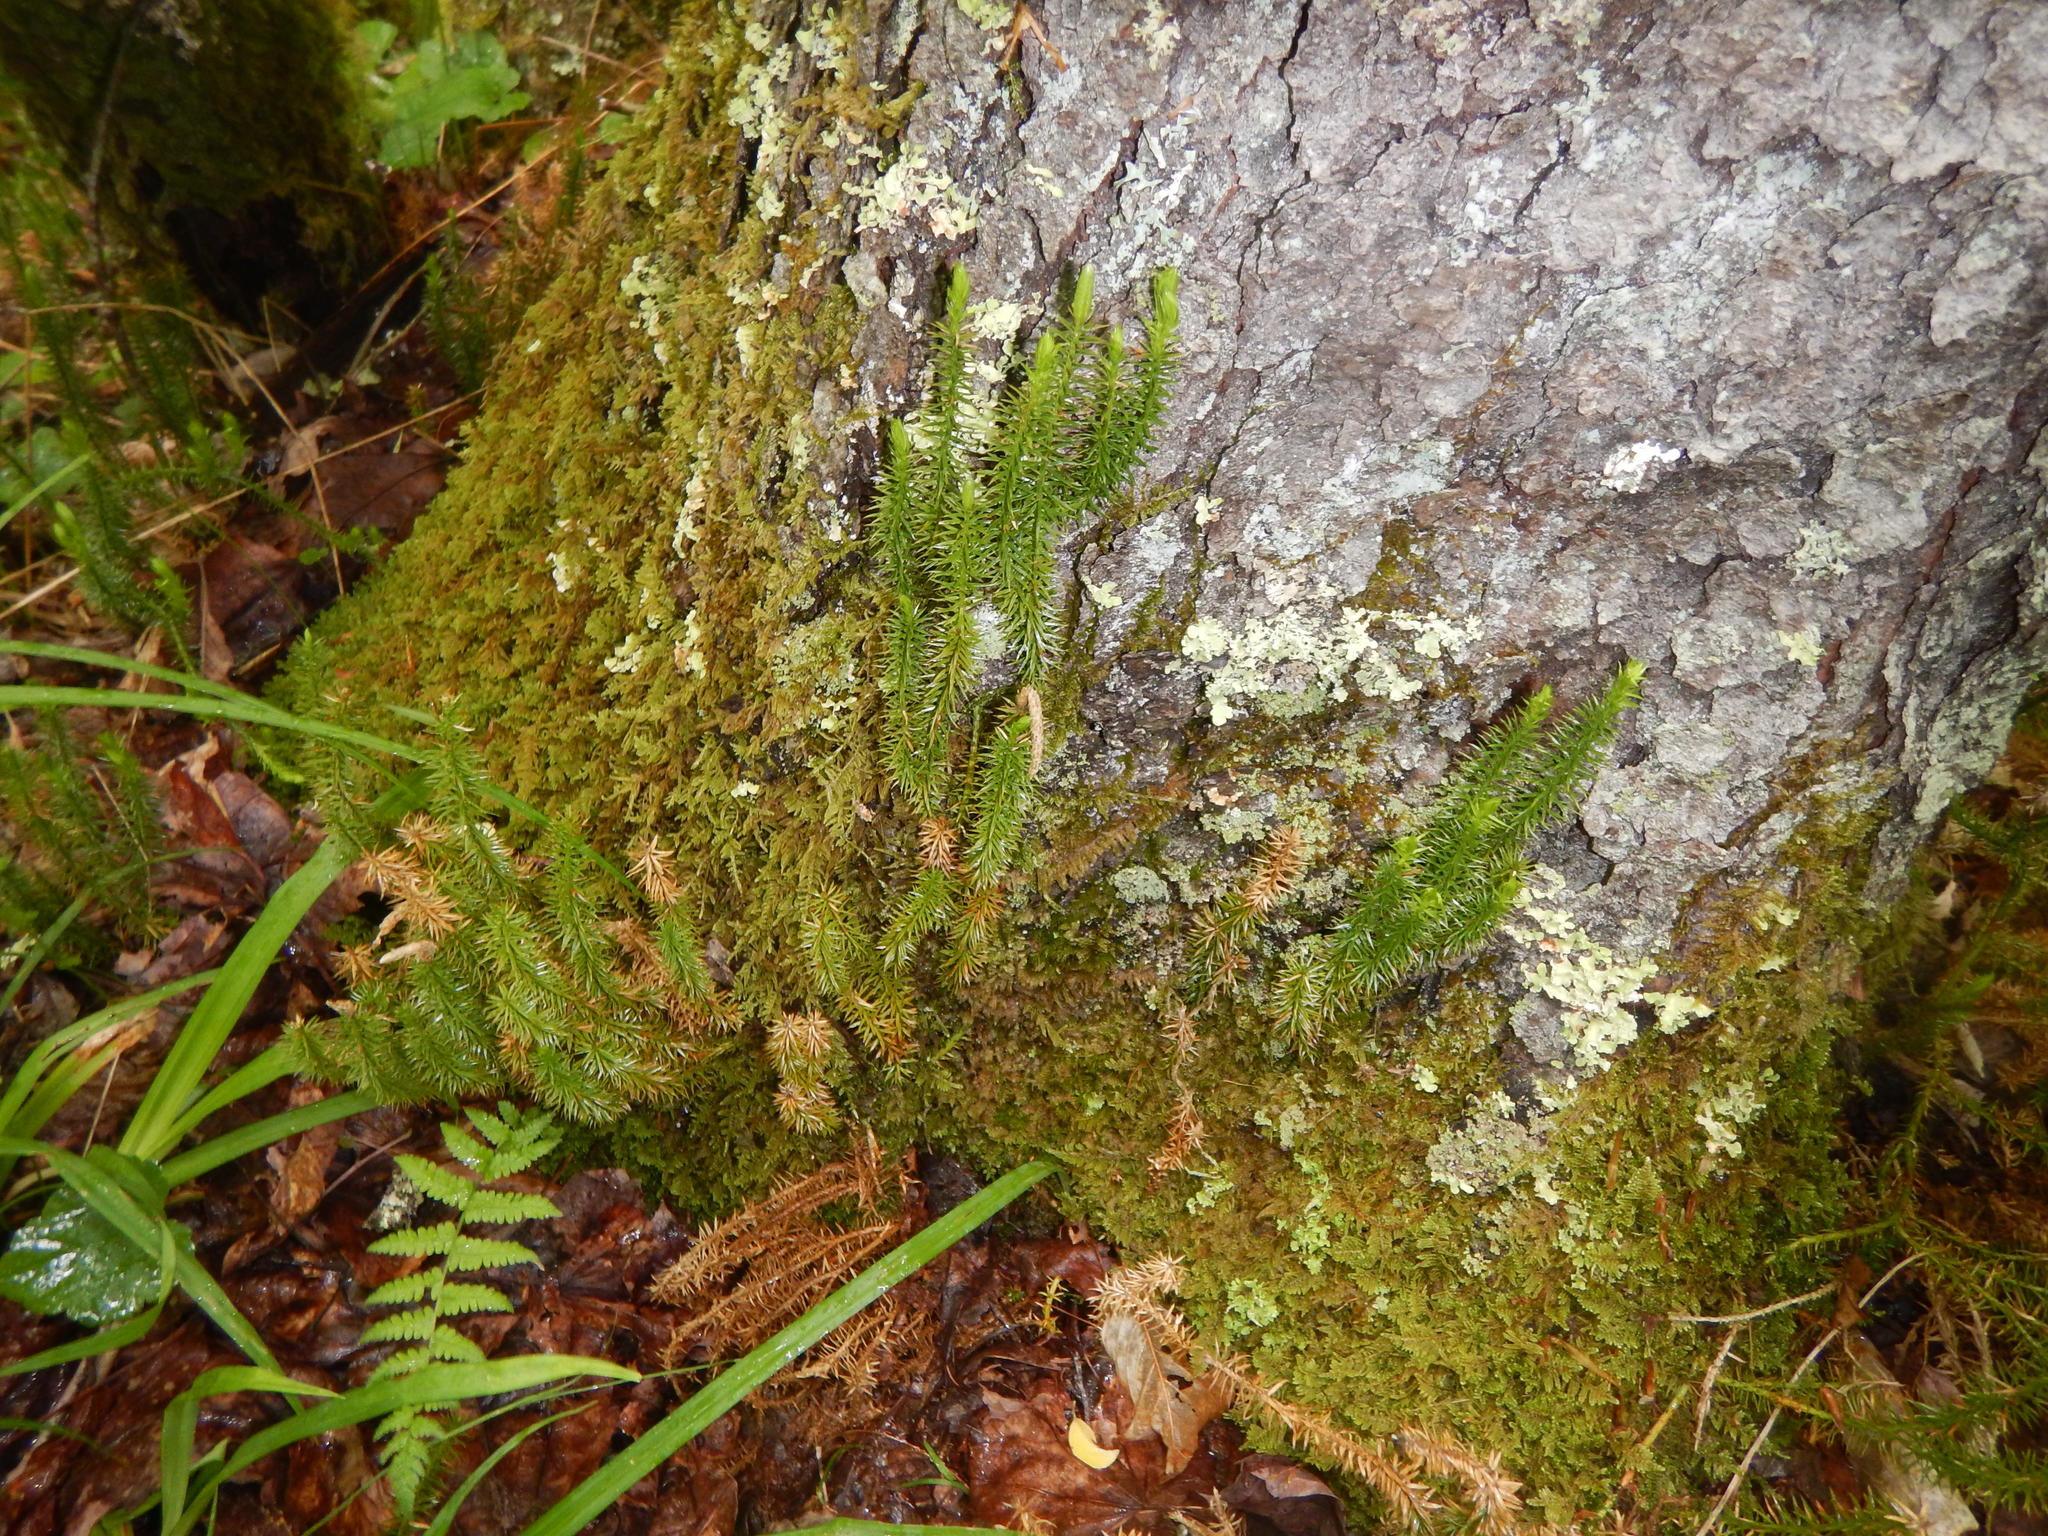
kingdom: Plantae
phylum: Tracheophyta
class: Lycopodiopsida
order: Lycopodiales
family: Lycopodiaceae
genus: Spinulum
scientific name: Spinulum annotinum
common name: Interrupted club-moss
